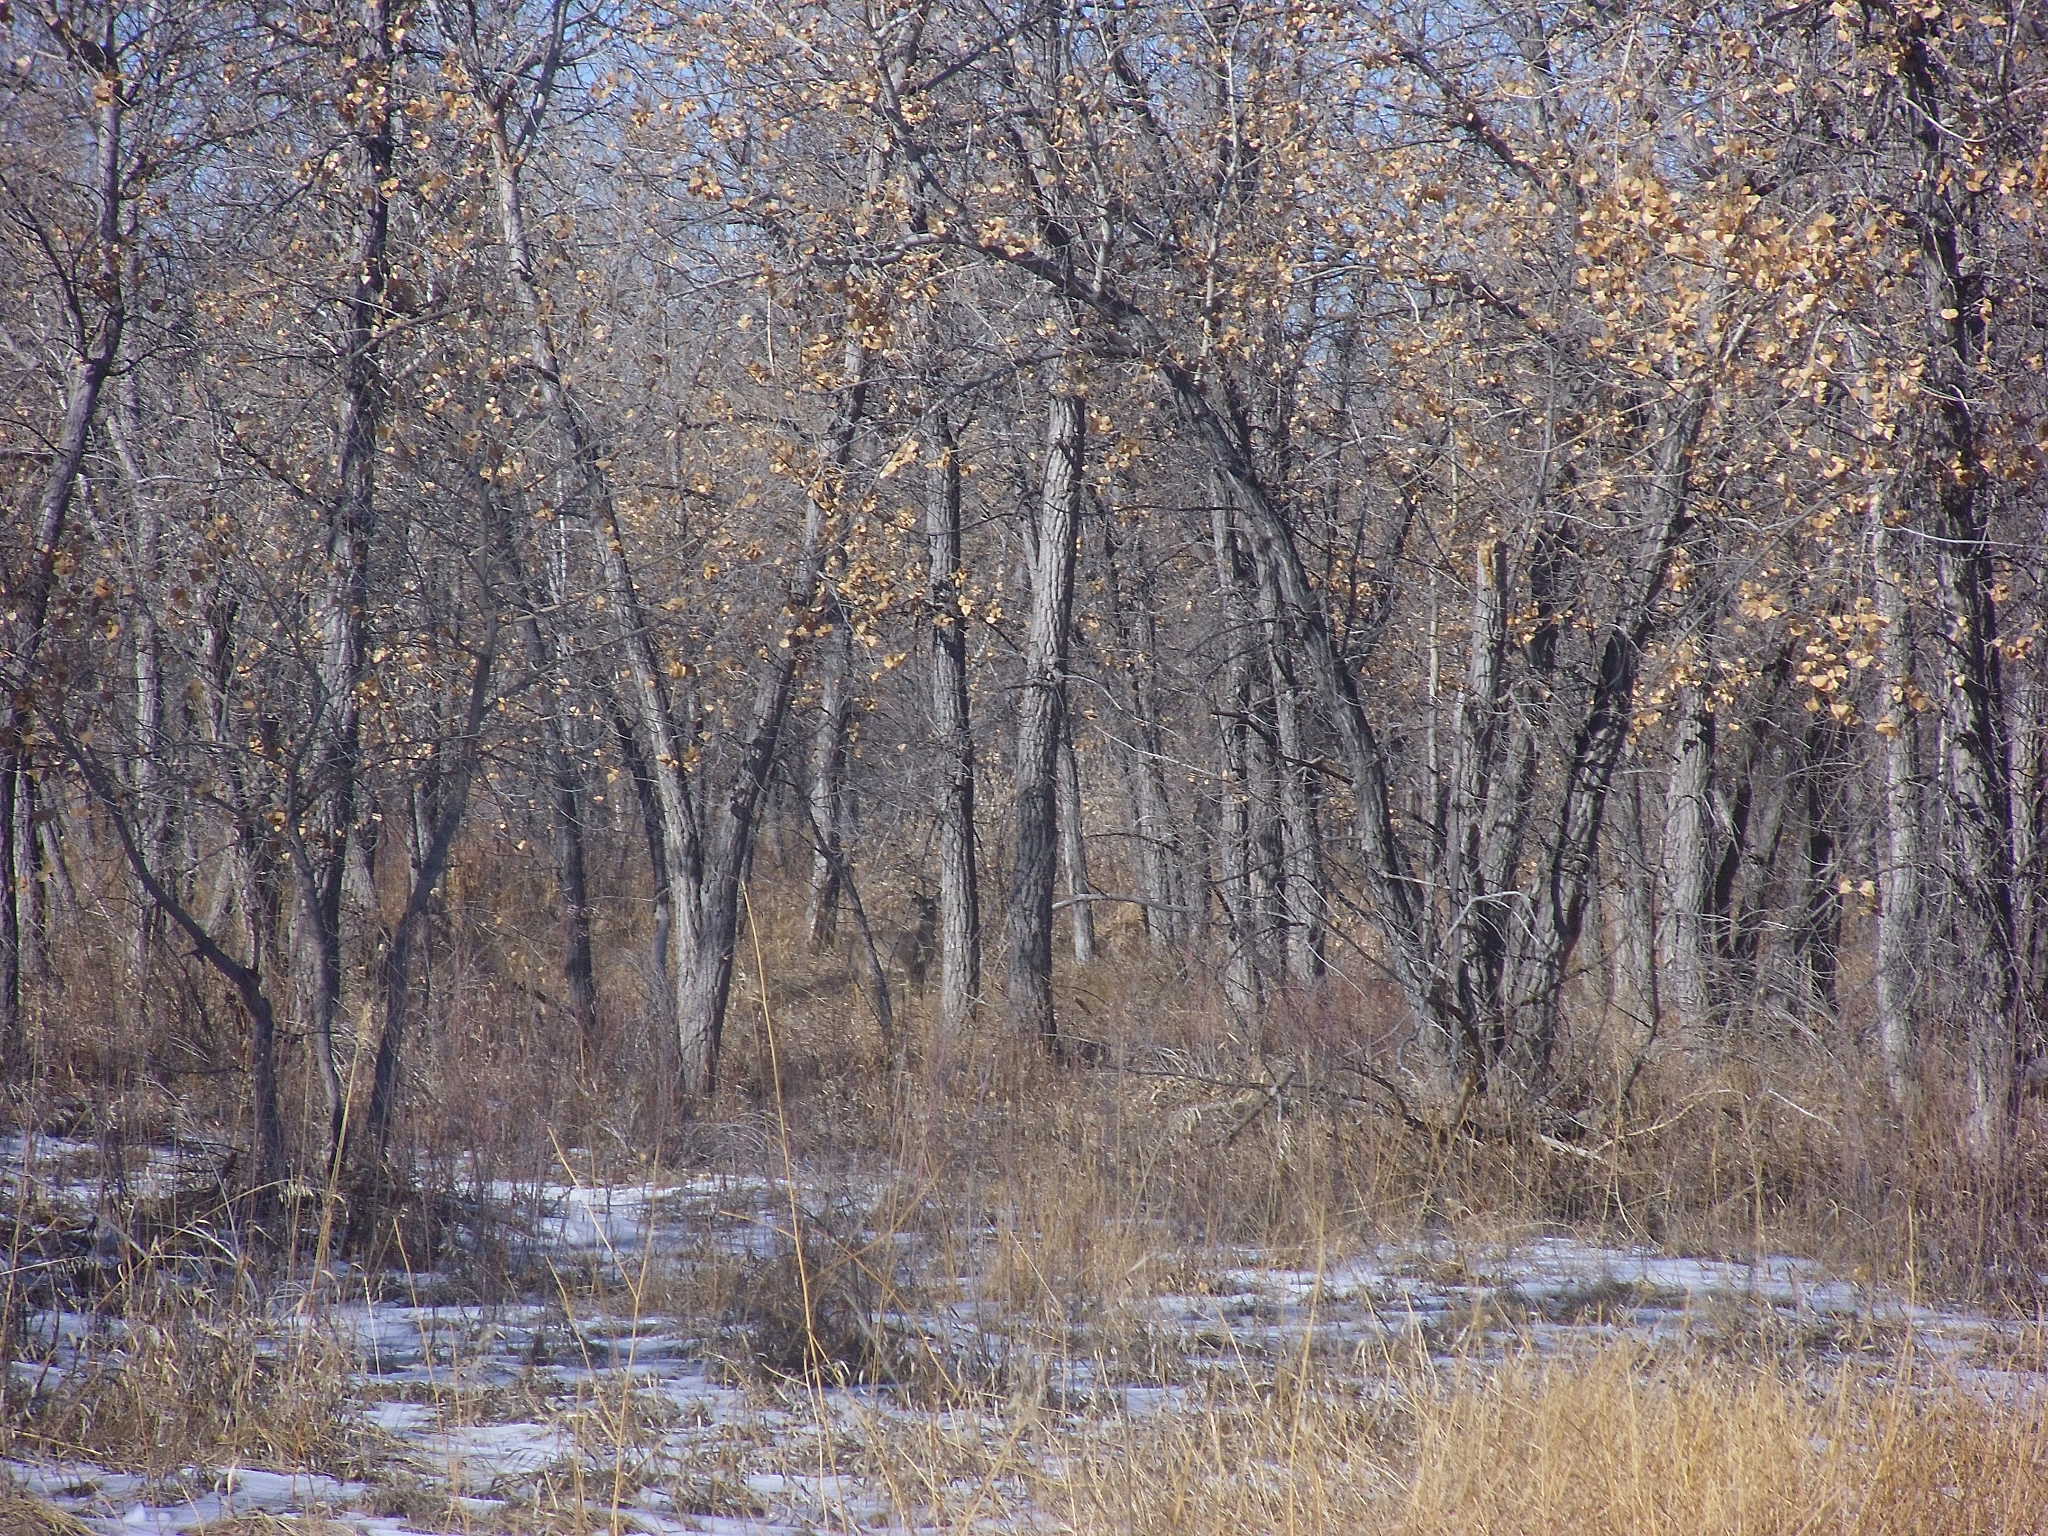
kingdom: Animalia
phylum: Chordata
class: Mammalia
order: Artiodactyla
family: Cervidae
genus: Odocoileus
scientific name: Odocoileus virginianus
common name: White-tailed deer
